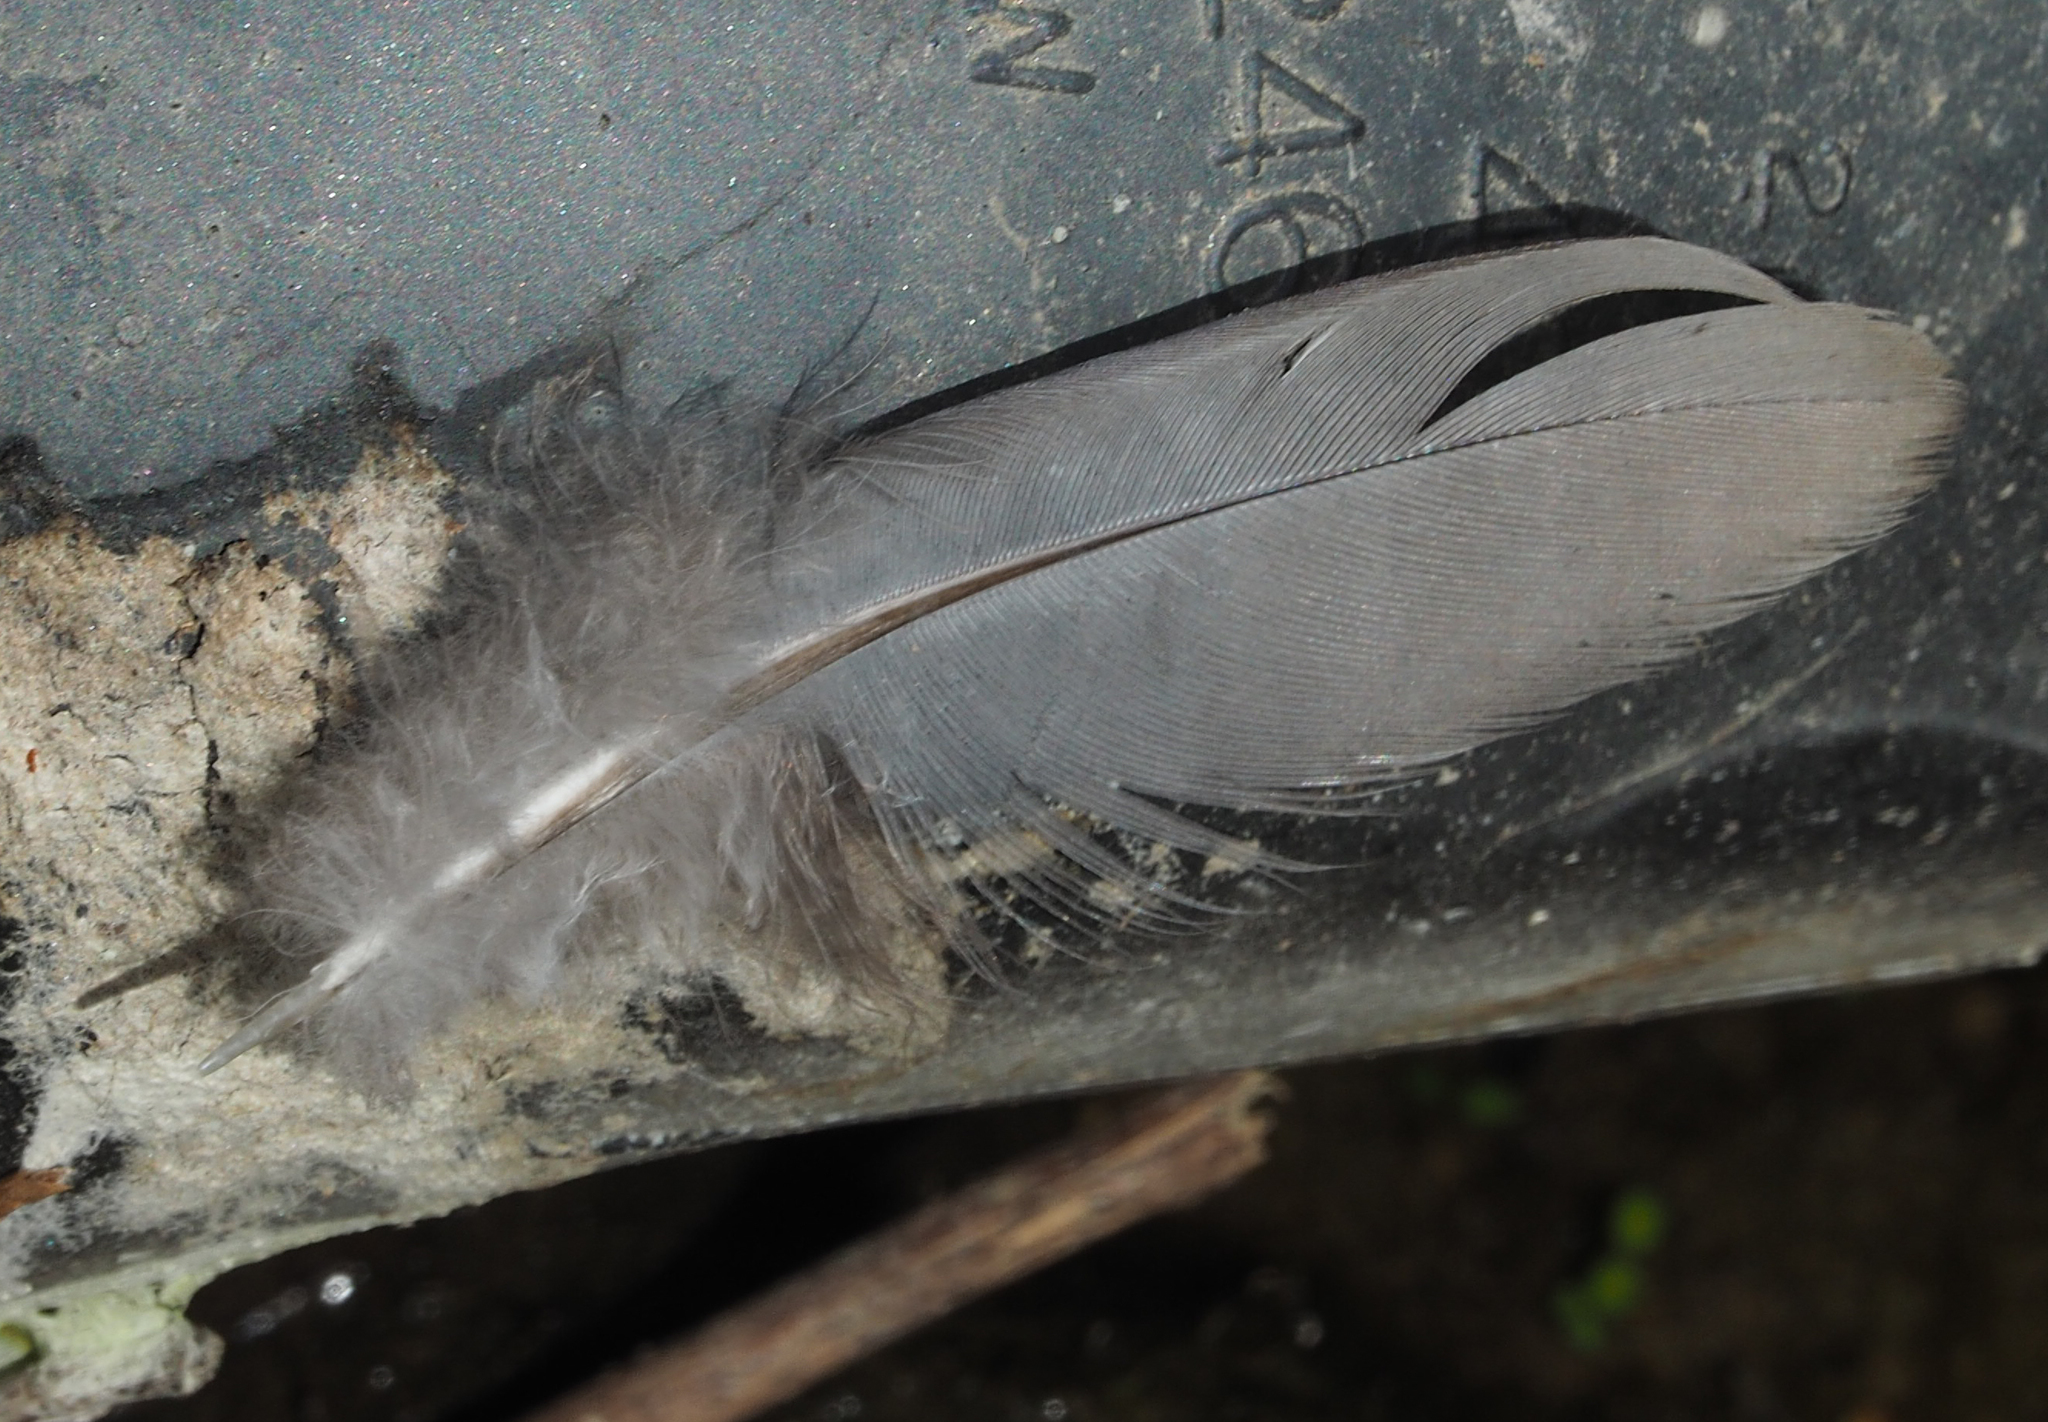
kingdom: Animalia
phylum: Chordata
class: Aves
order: Columbiformes
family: Columbidae
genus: Zenaida
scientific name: Zenaida macroura
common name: Mourning dove
